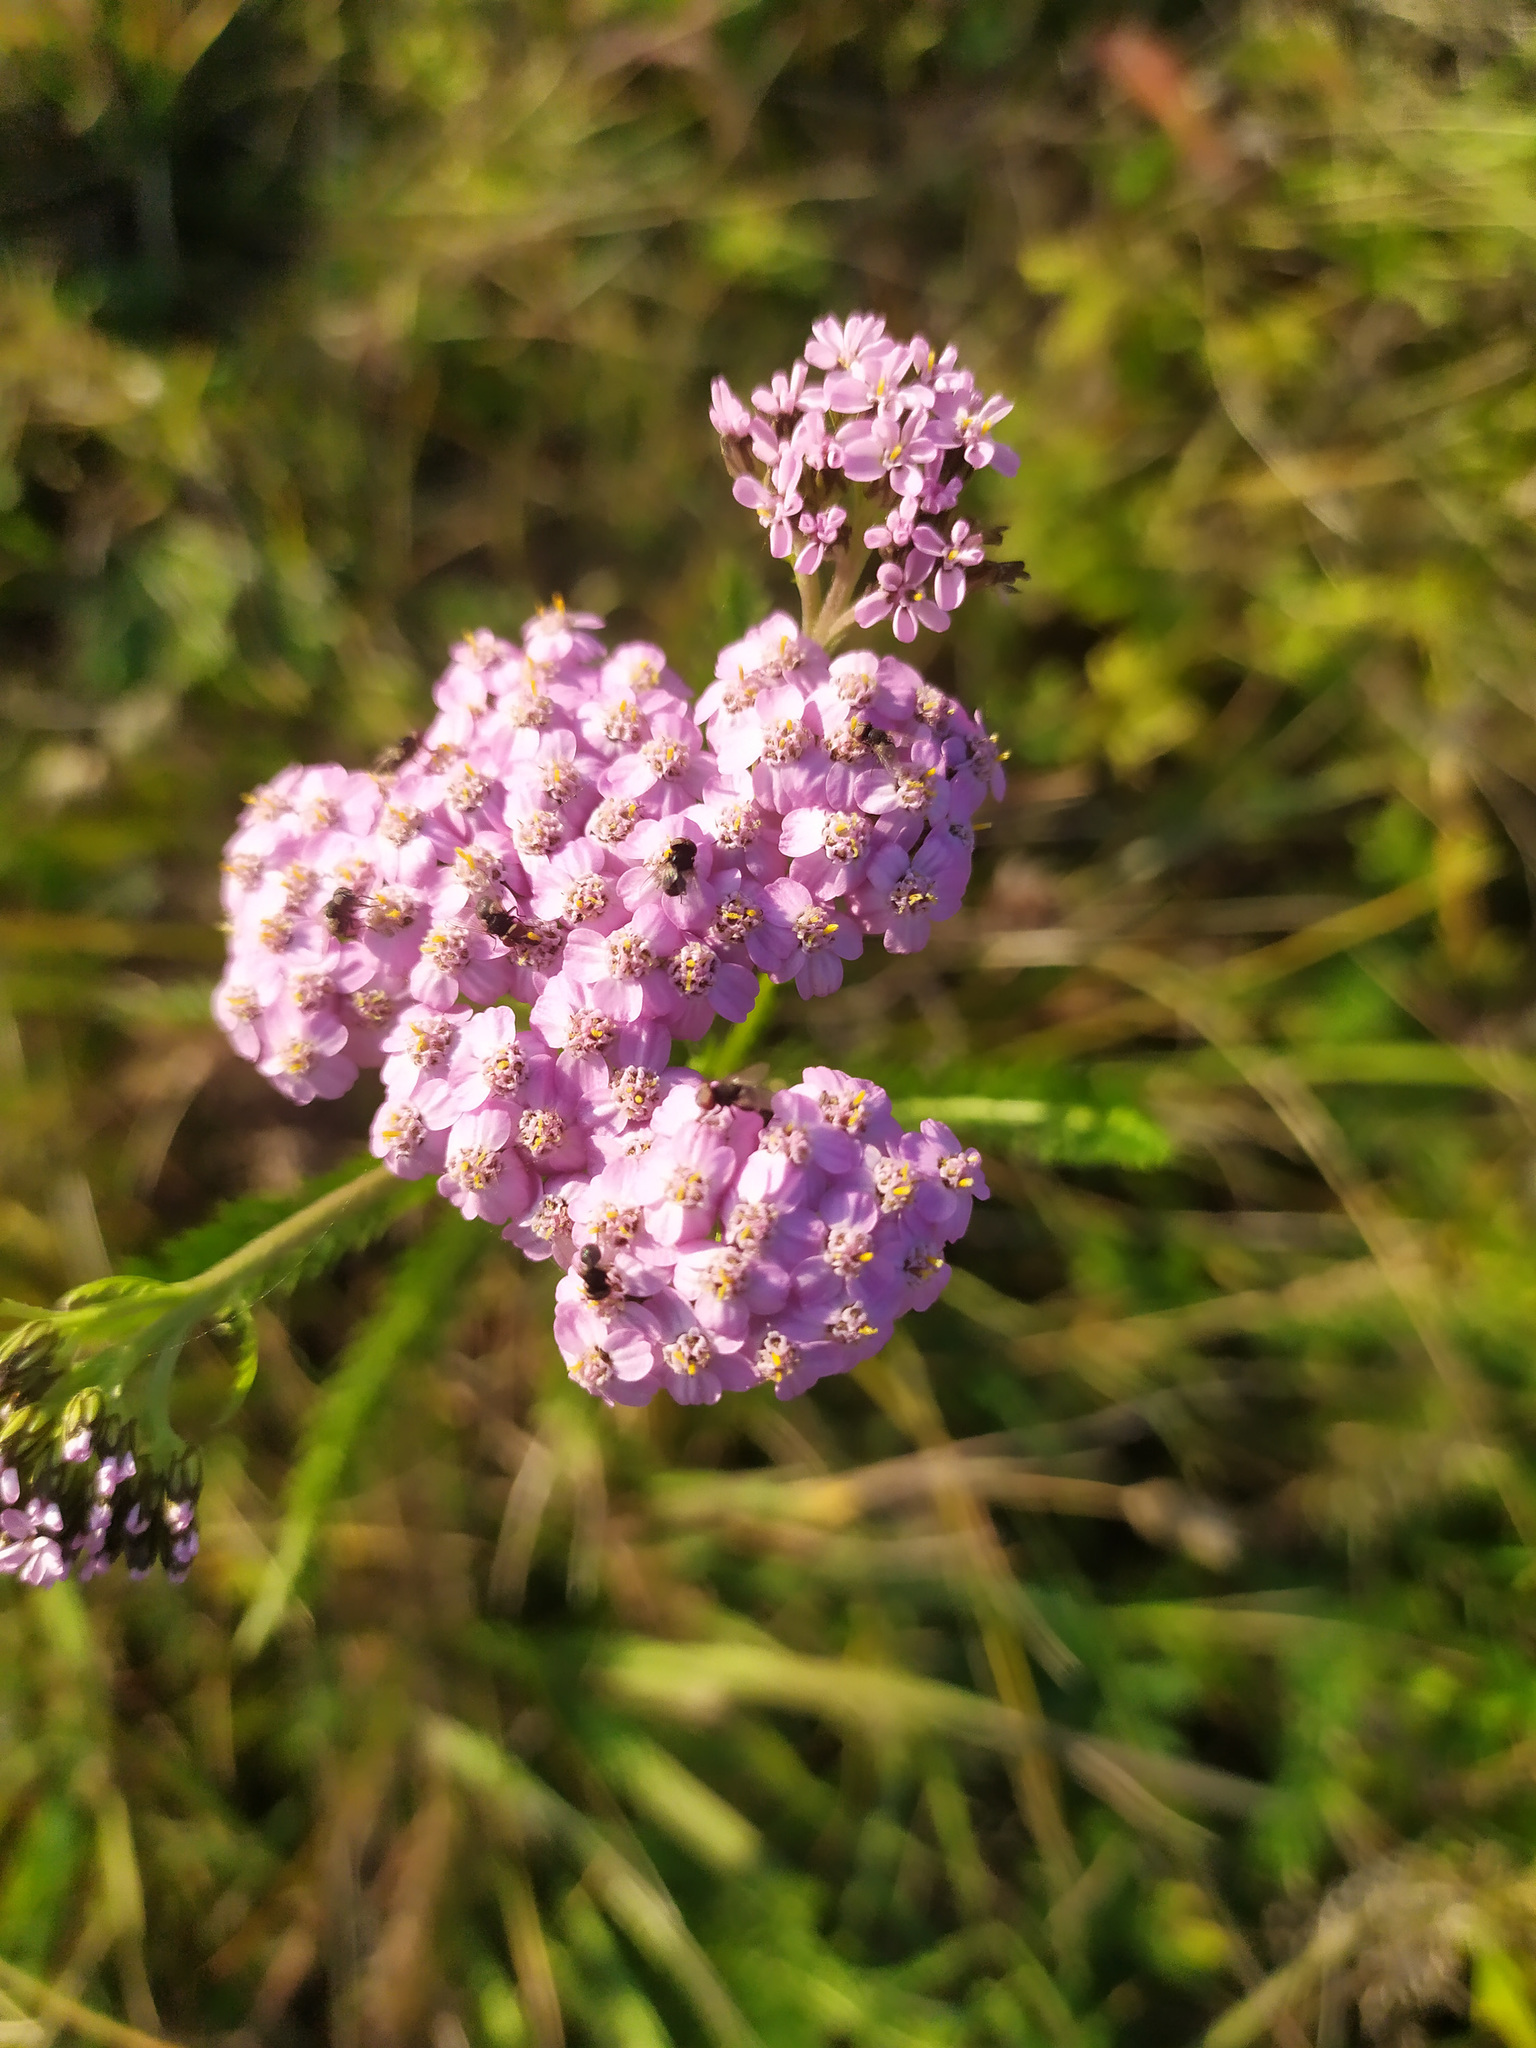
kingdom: Plantae
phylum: Tracheophyta
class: Magnoliopsida
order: Asterales
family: Asteraceae
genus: Achillea
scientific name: Achillea millefolium
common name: Yarrow
